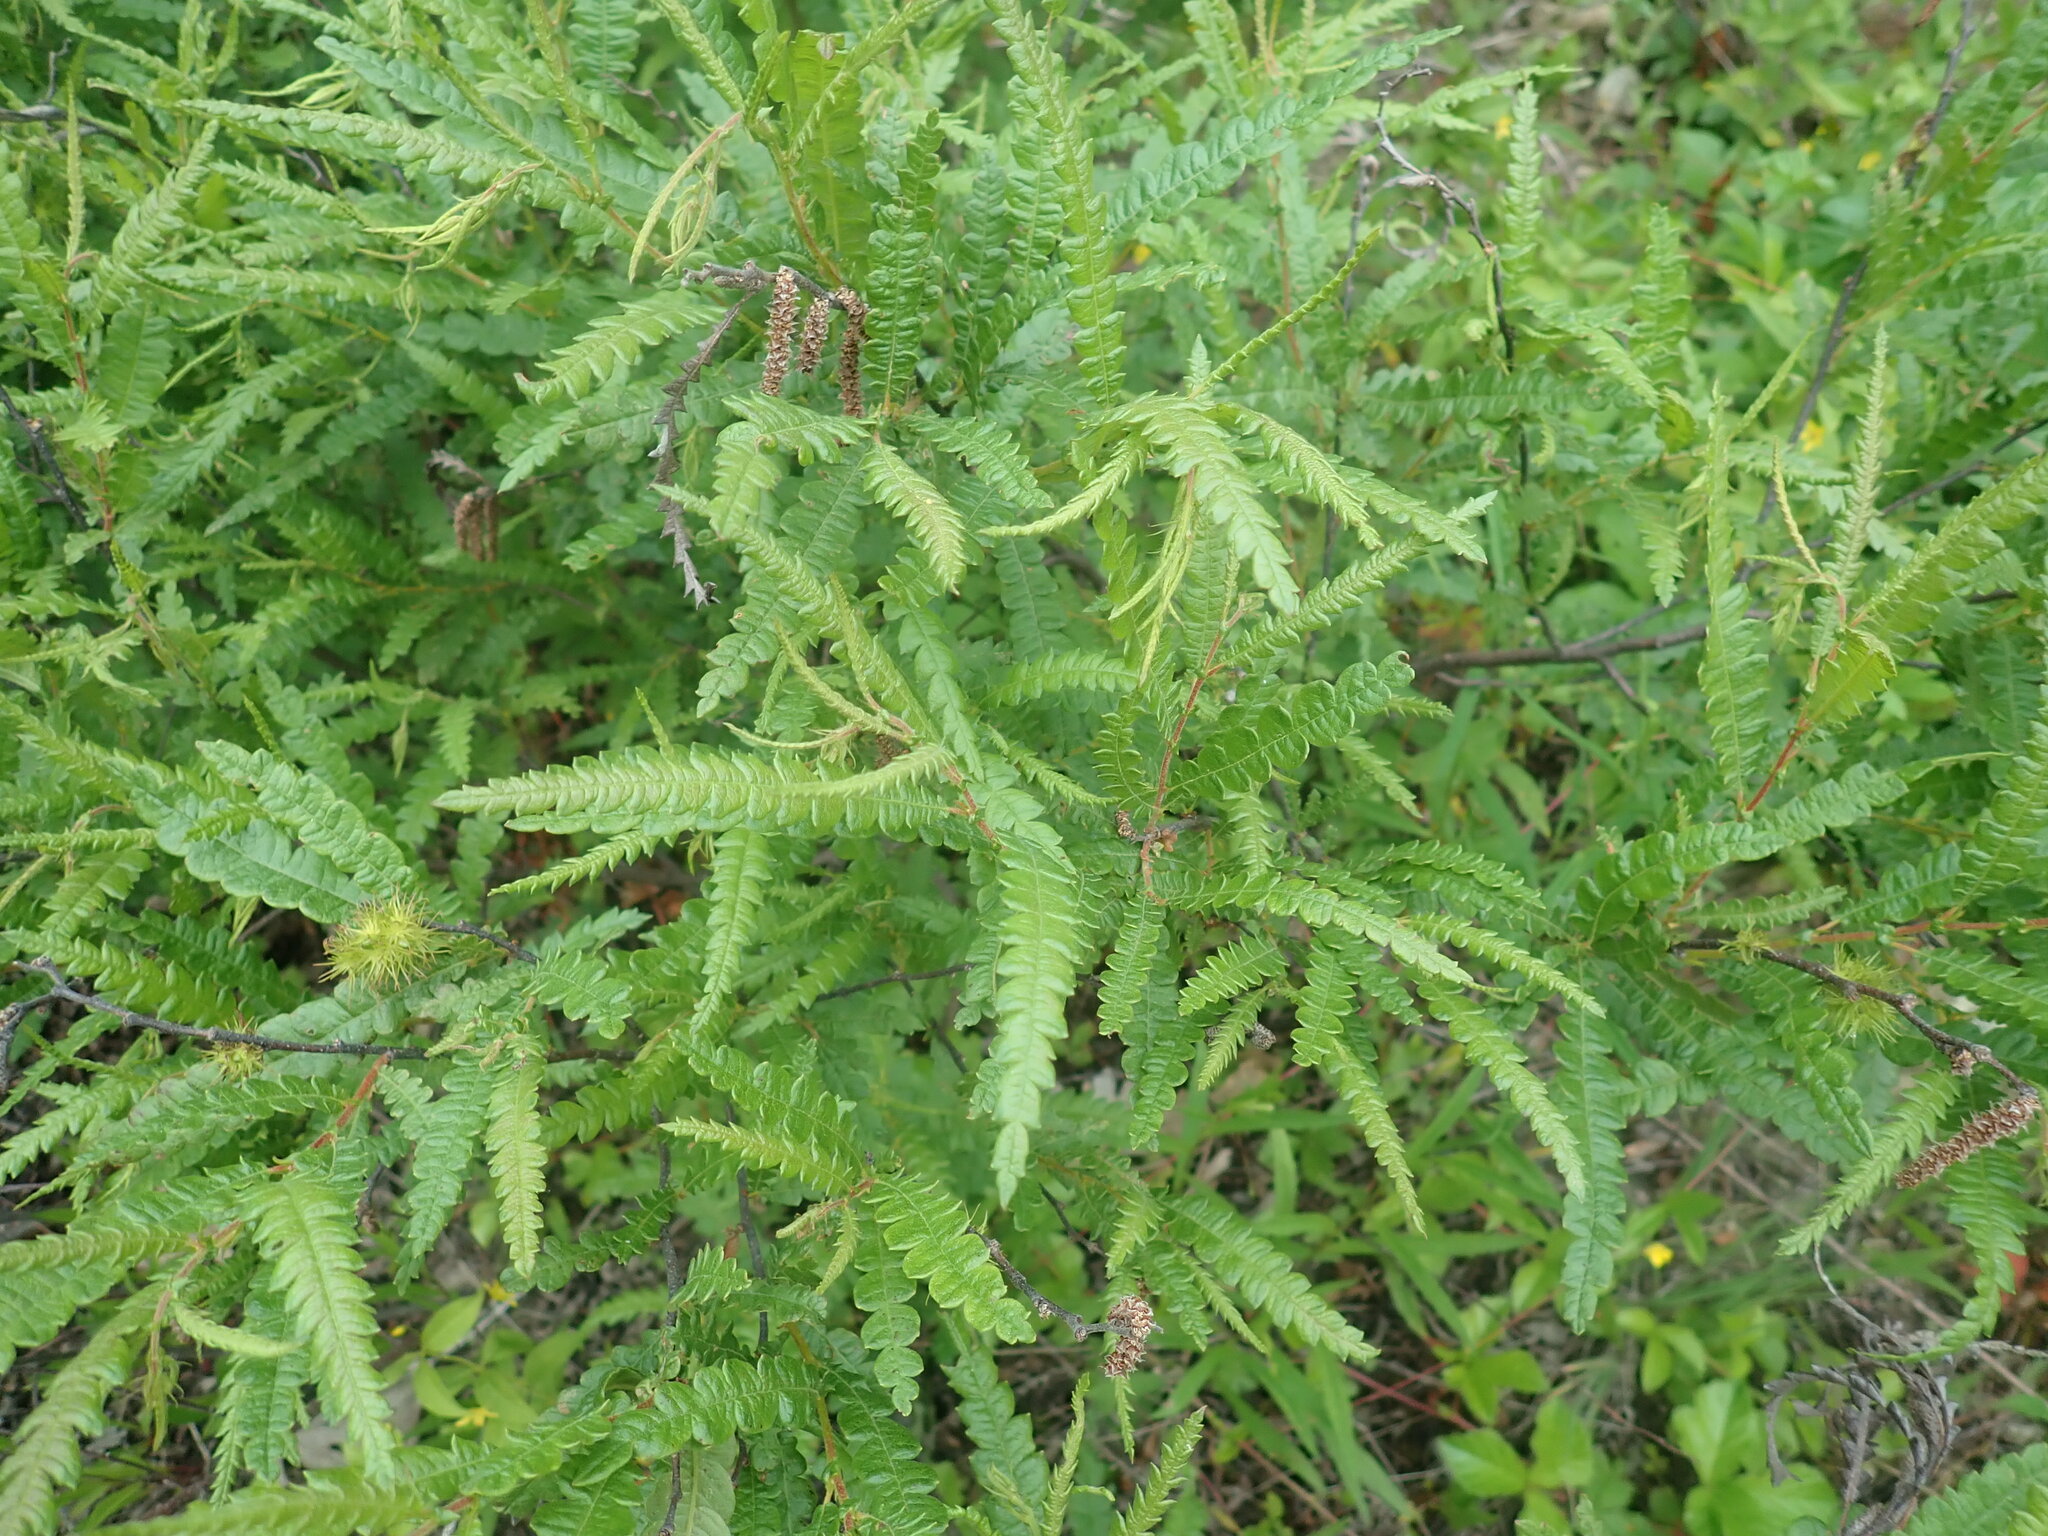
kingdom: Plantae
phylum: Tracheophyta
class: Magnoliopsida
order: Fagales
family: Myricaceae
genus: Comptonia
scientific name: Comptonia peregrina
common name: Sweet-fern
